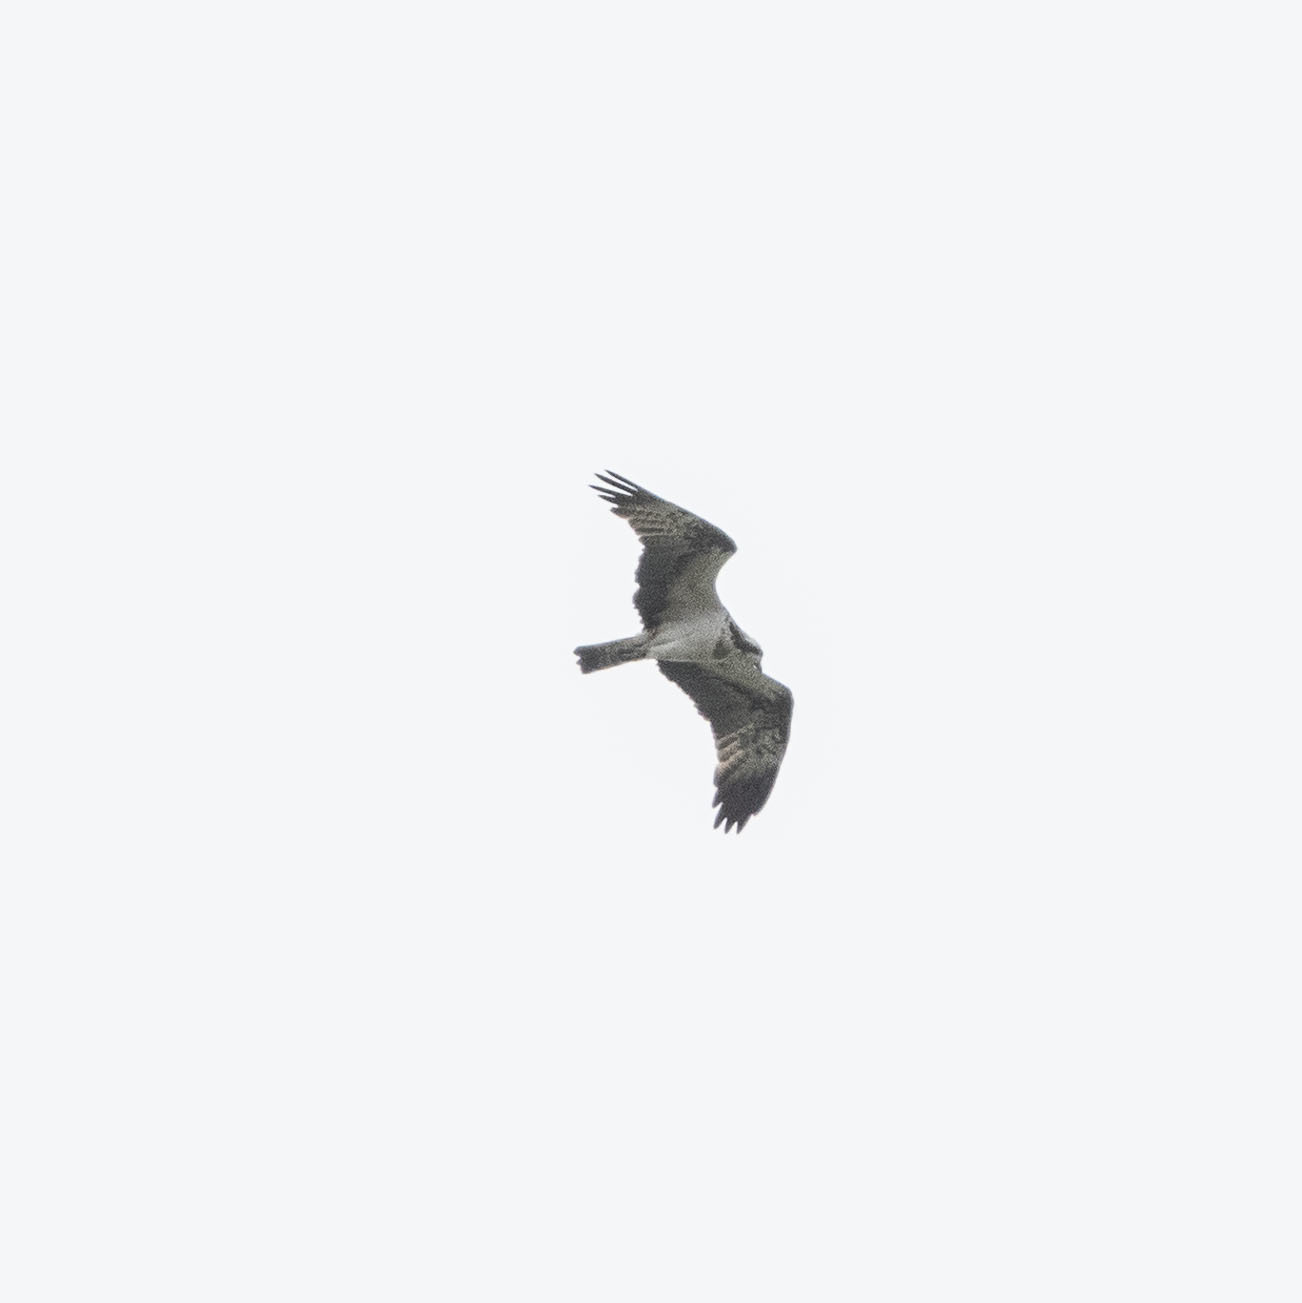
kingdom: Animalia
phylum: Chordata
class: Aves
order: Accipitriformes
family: Pandionidae
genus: Pandion
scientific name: Pandion haliaetus
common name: Osprey
